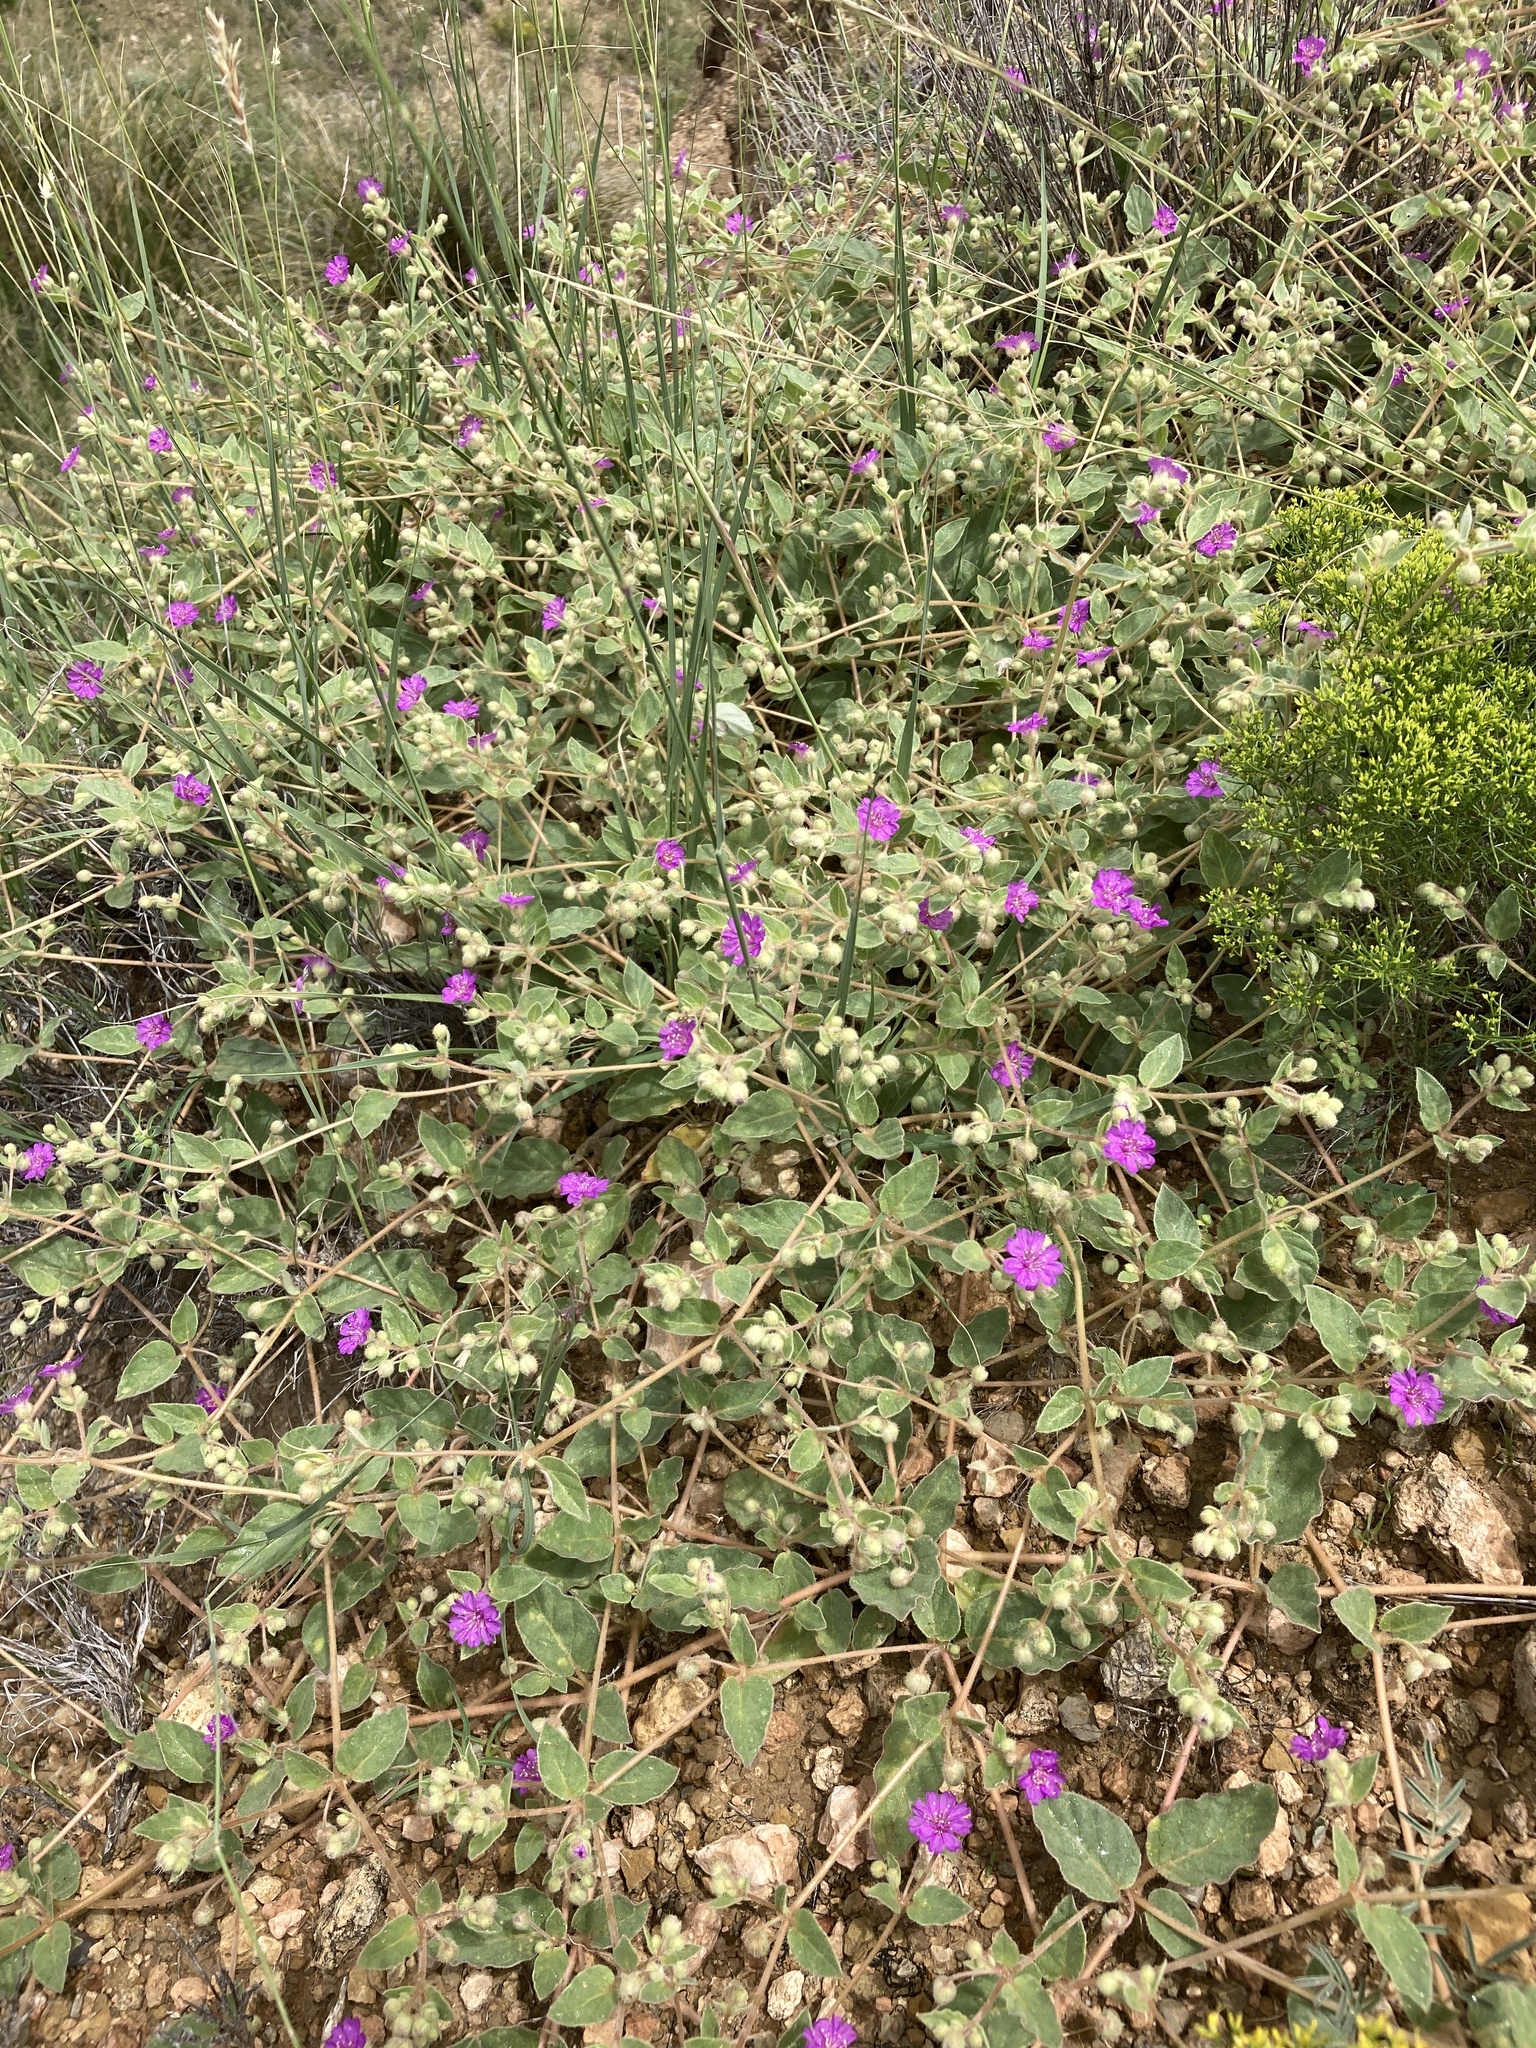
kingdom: Plantae
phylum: Tracheophyta
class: Magnoliopsida
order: Caryophyllales
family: Nyctaginaceae
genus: Allionia
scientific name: Allionia incarnata
